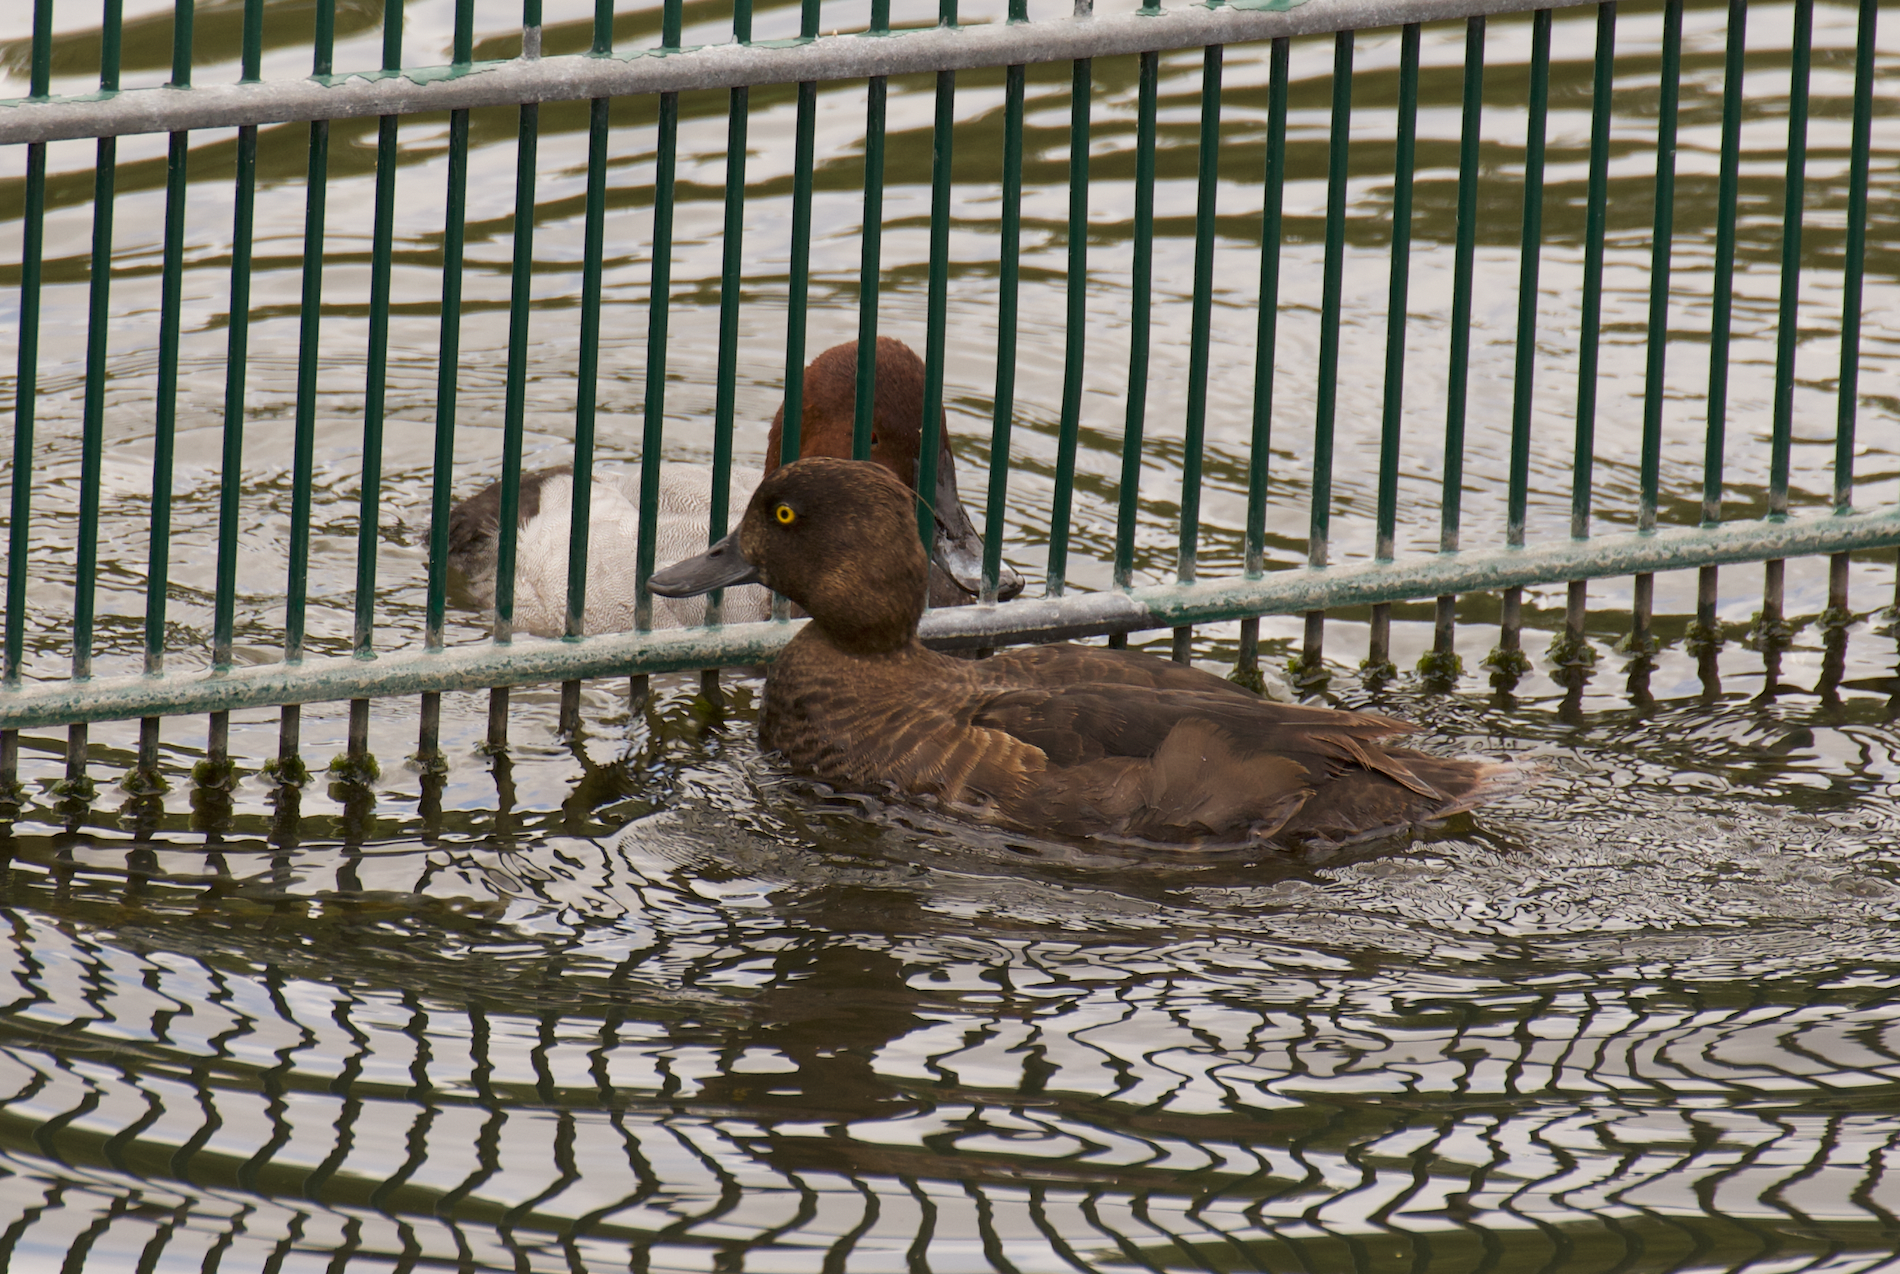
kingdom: Animalia
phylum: Chordata
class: Aves
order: Anseriformes
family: Anatidae
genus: Aythya
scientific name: Aythya fuligula
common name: Tufted duck
